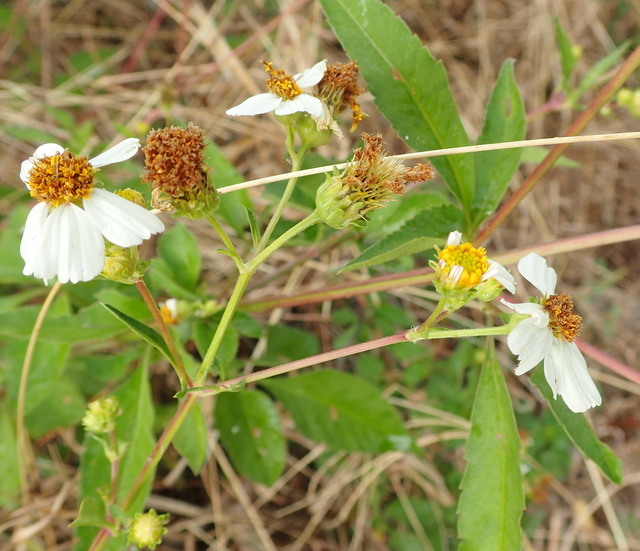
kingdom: Plantae
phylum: Tracheophyta
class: Magnoliopsida
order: Asterales
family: Asteraceae
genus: Bidens
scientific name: Bidens alba
